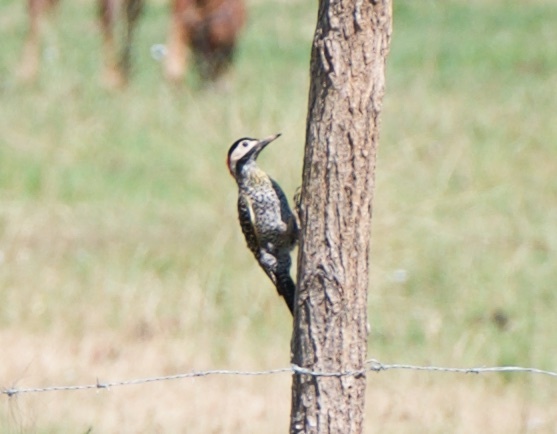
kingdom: Animalia
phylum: Chordata
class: Aves
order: Piciformes
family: Picidae
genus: Colaptes
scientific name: Colaptes melanochloros
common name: Green-barred woodpecker
